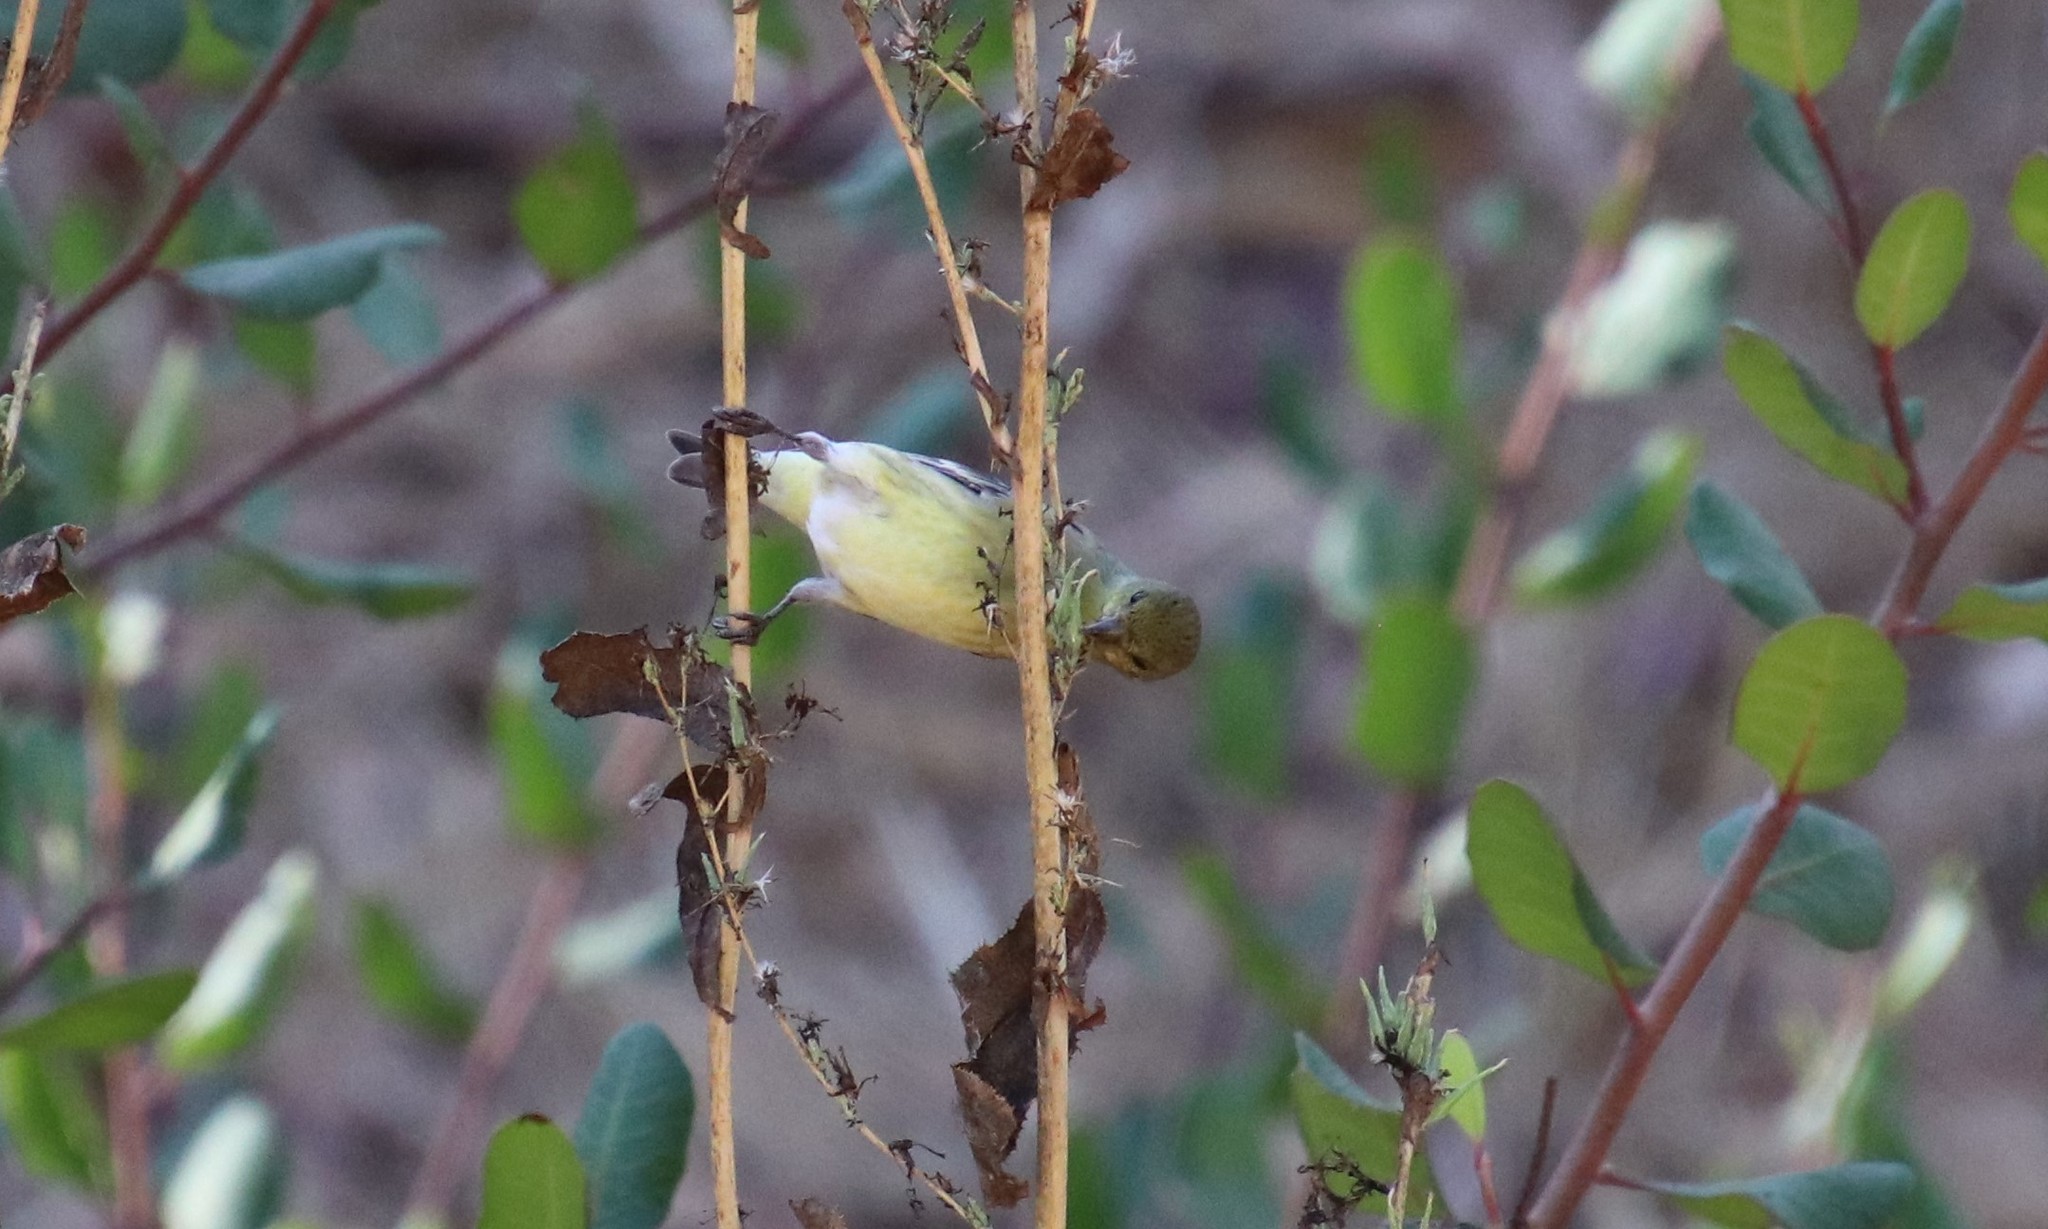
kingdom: Animalia
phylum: Chordata
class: Aves
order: Passeriformes
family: Fringillidae
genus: Spinus
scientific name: Spinus psaltria
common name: Lesser goldfinch
